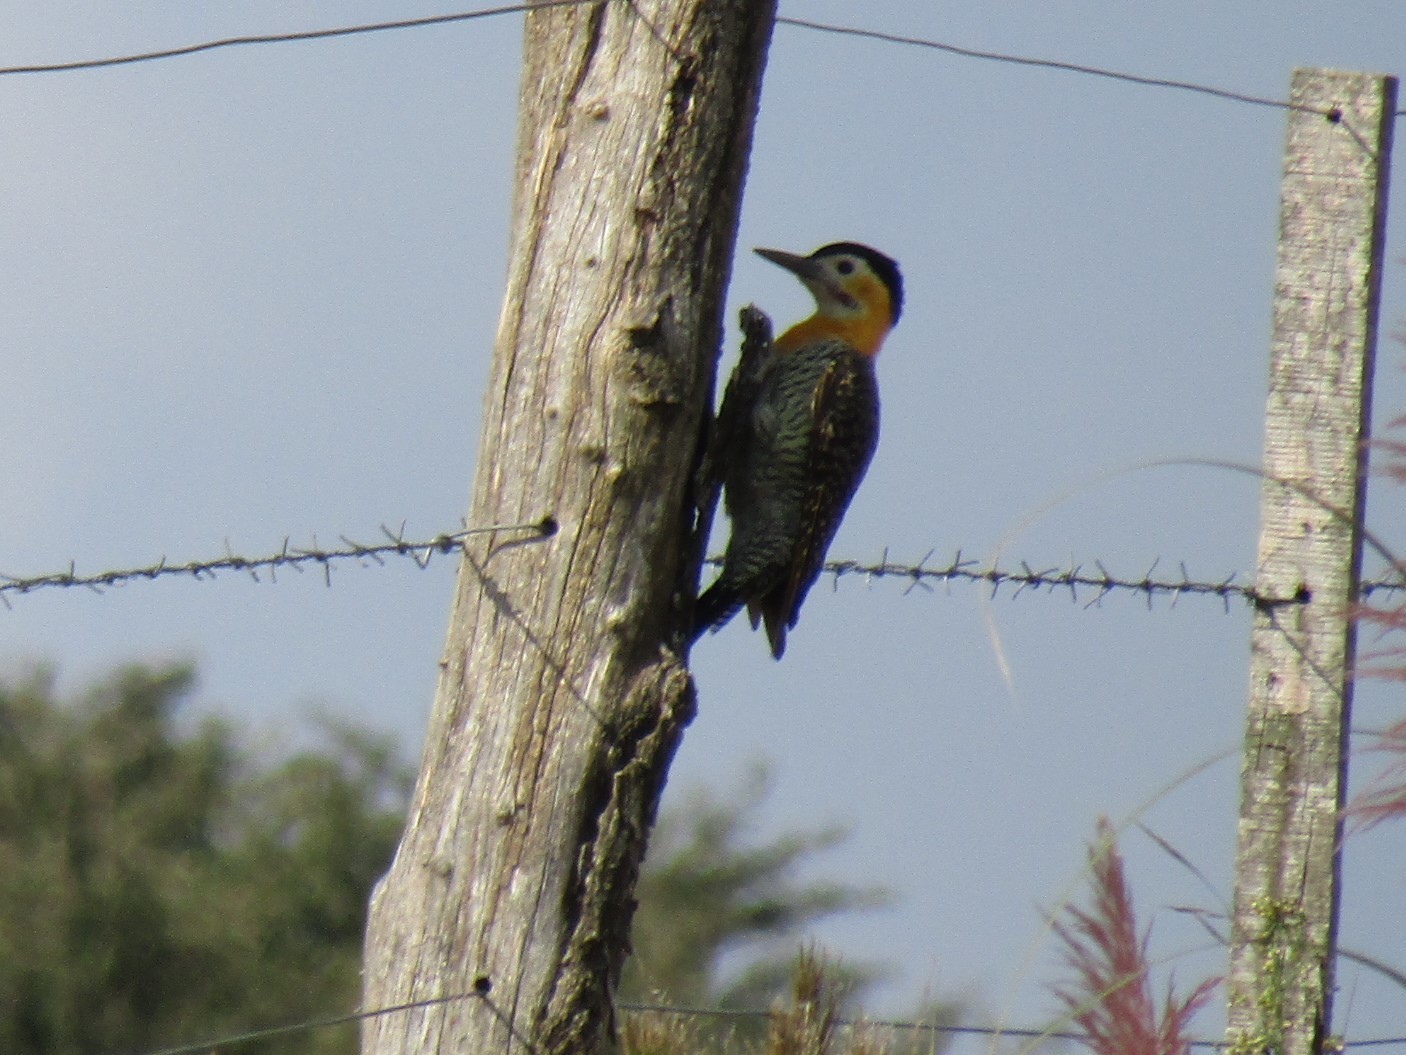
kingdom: Animalia
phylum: Chordata
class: Aves
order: Piciformes
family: Picidae
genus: Colaptes
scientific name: Colaptes campestris
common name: Campo flicker
